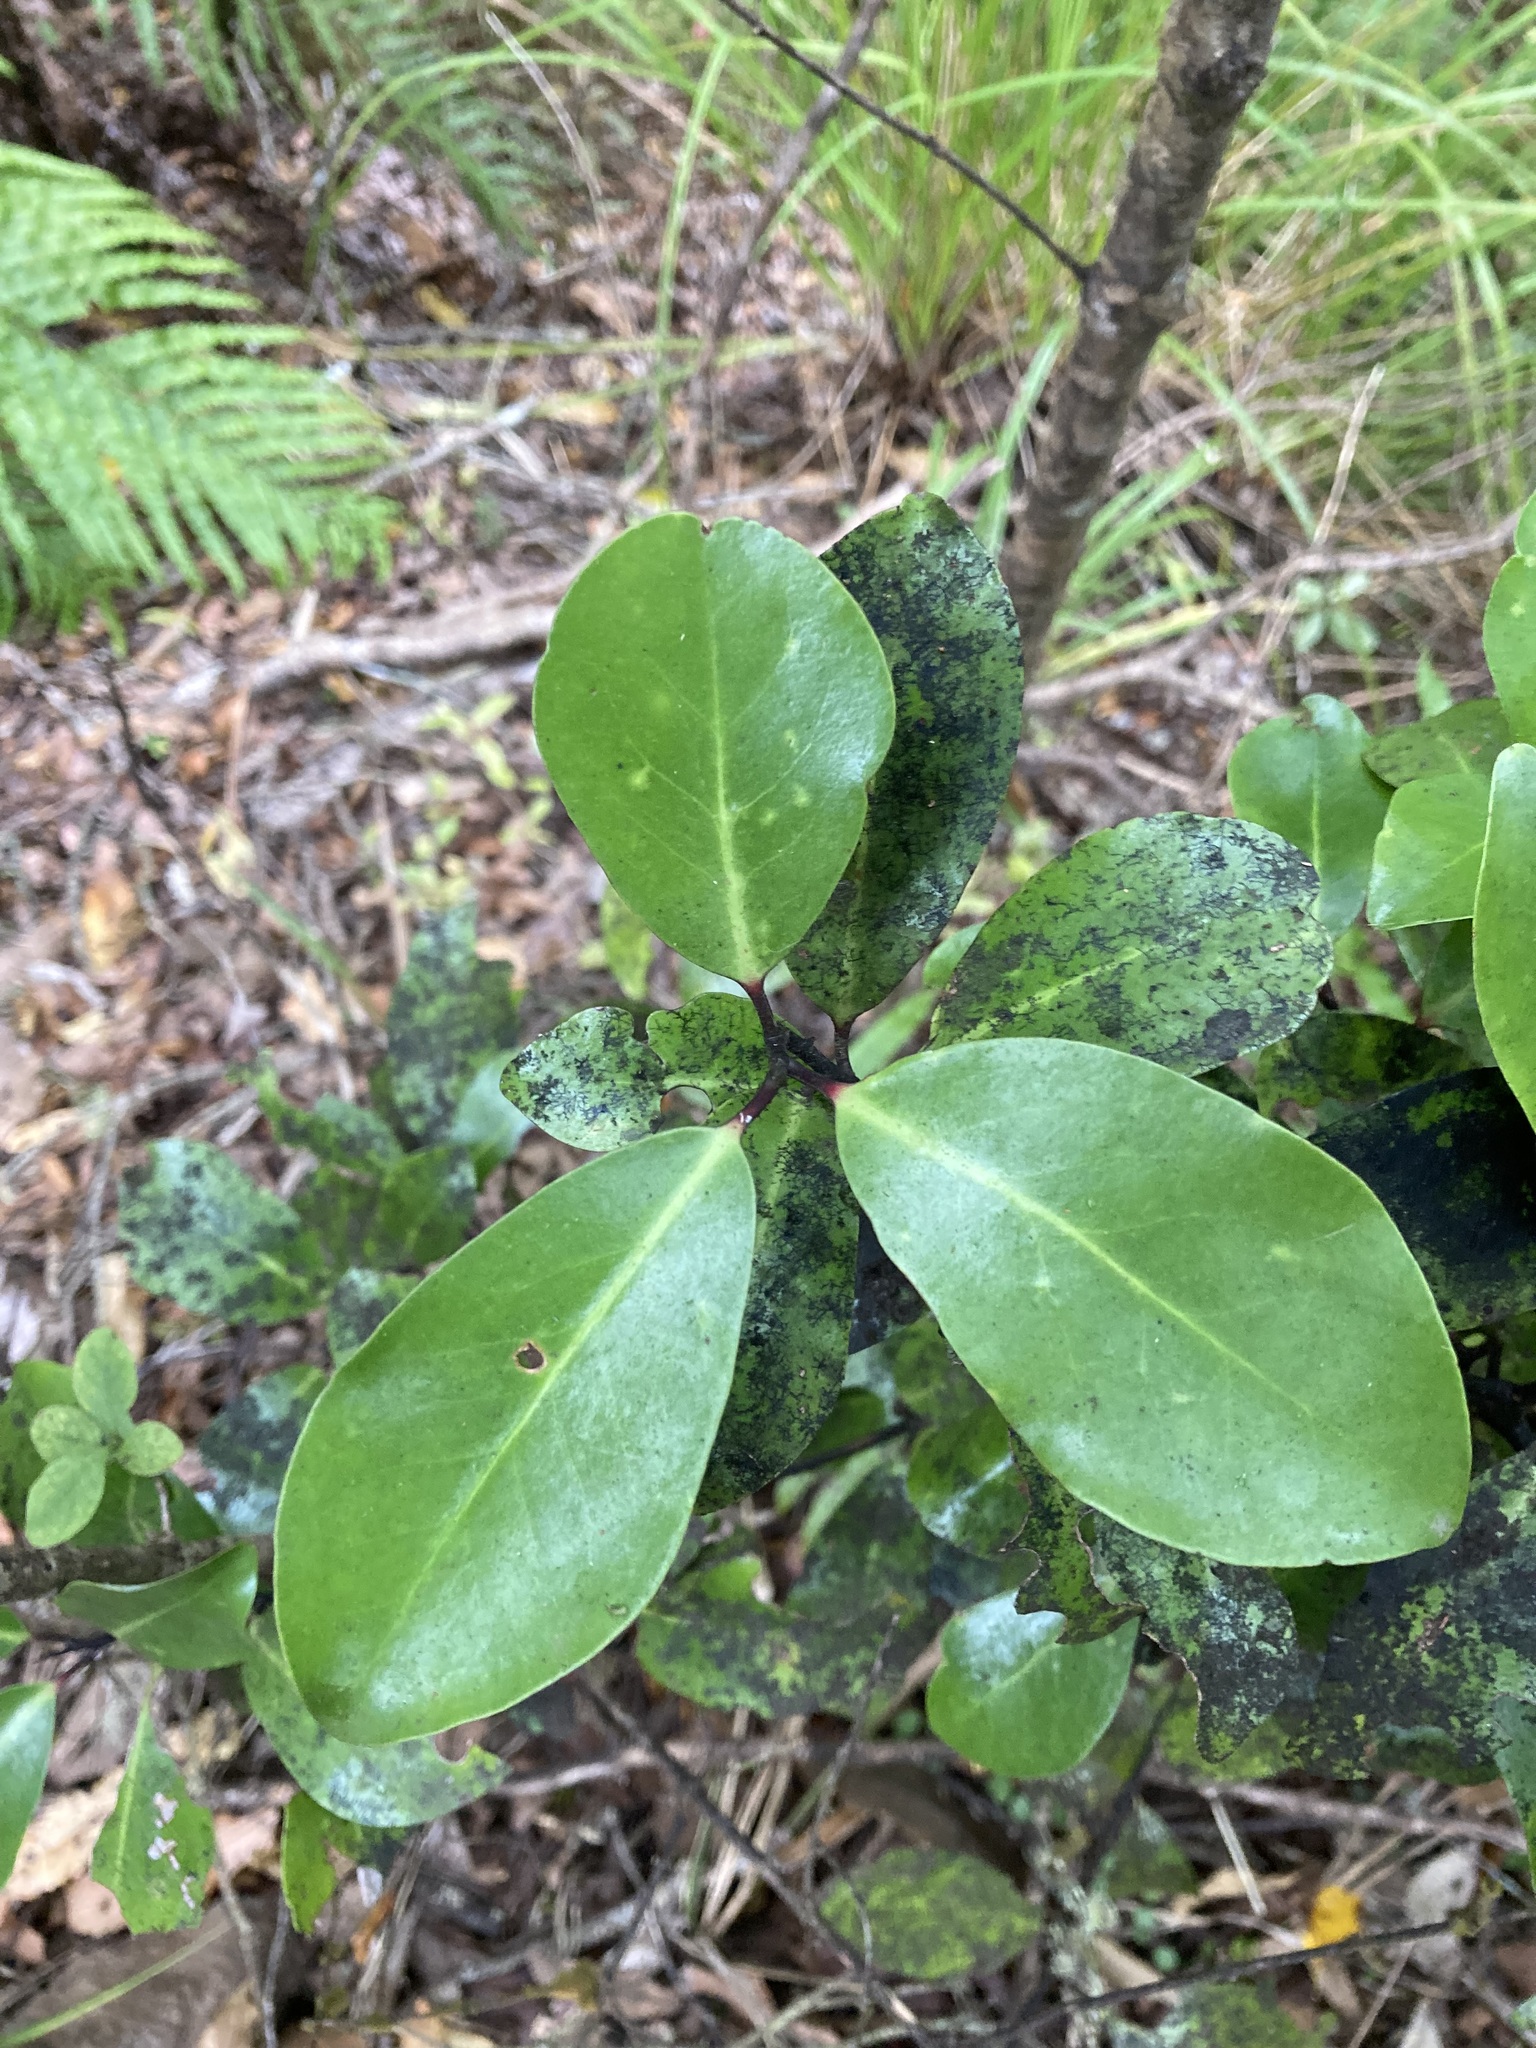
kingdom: Plantae
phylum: Tracheophyta
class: Magnoliopsida
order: Canellales
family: Winteraceae
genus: Pseudowintera
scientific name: Pseudowintera axillaris
